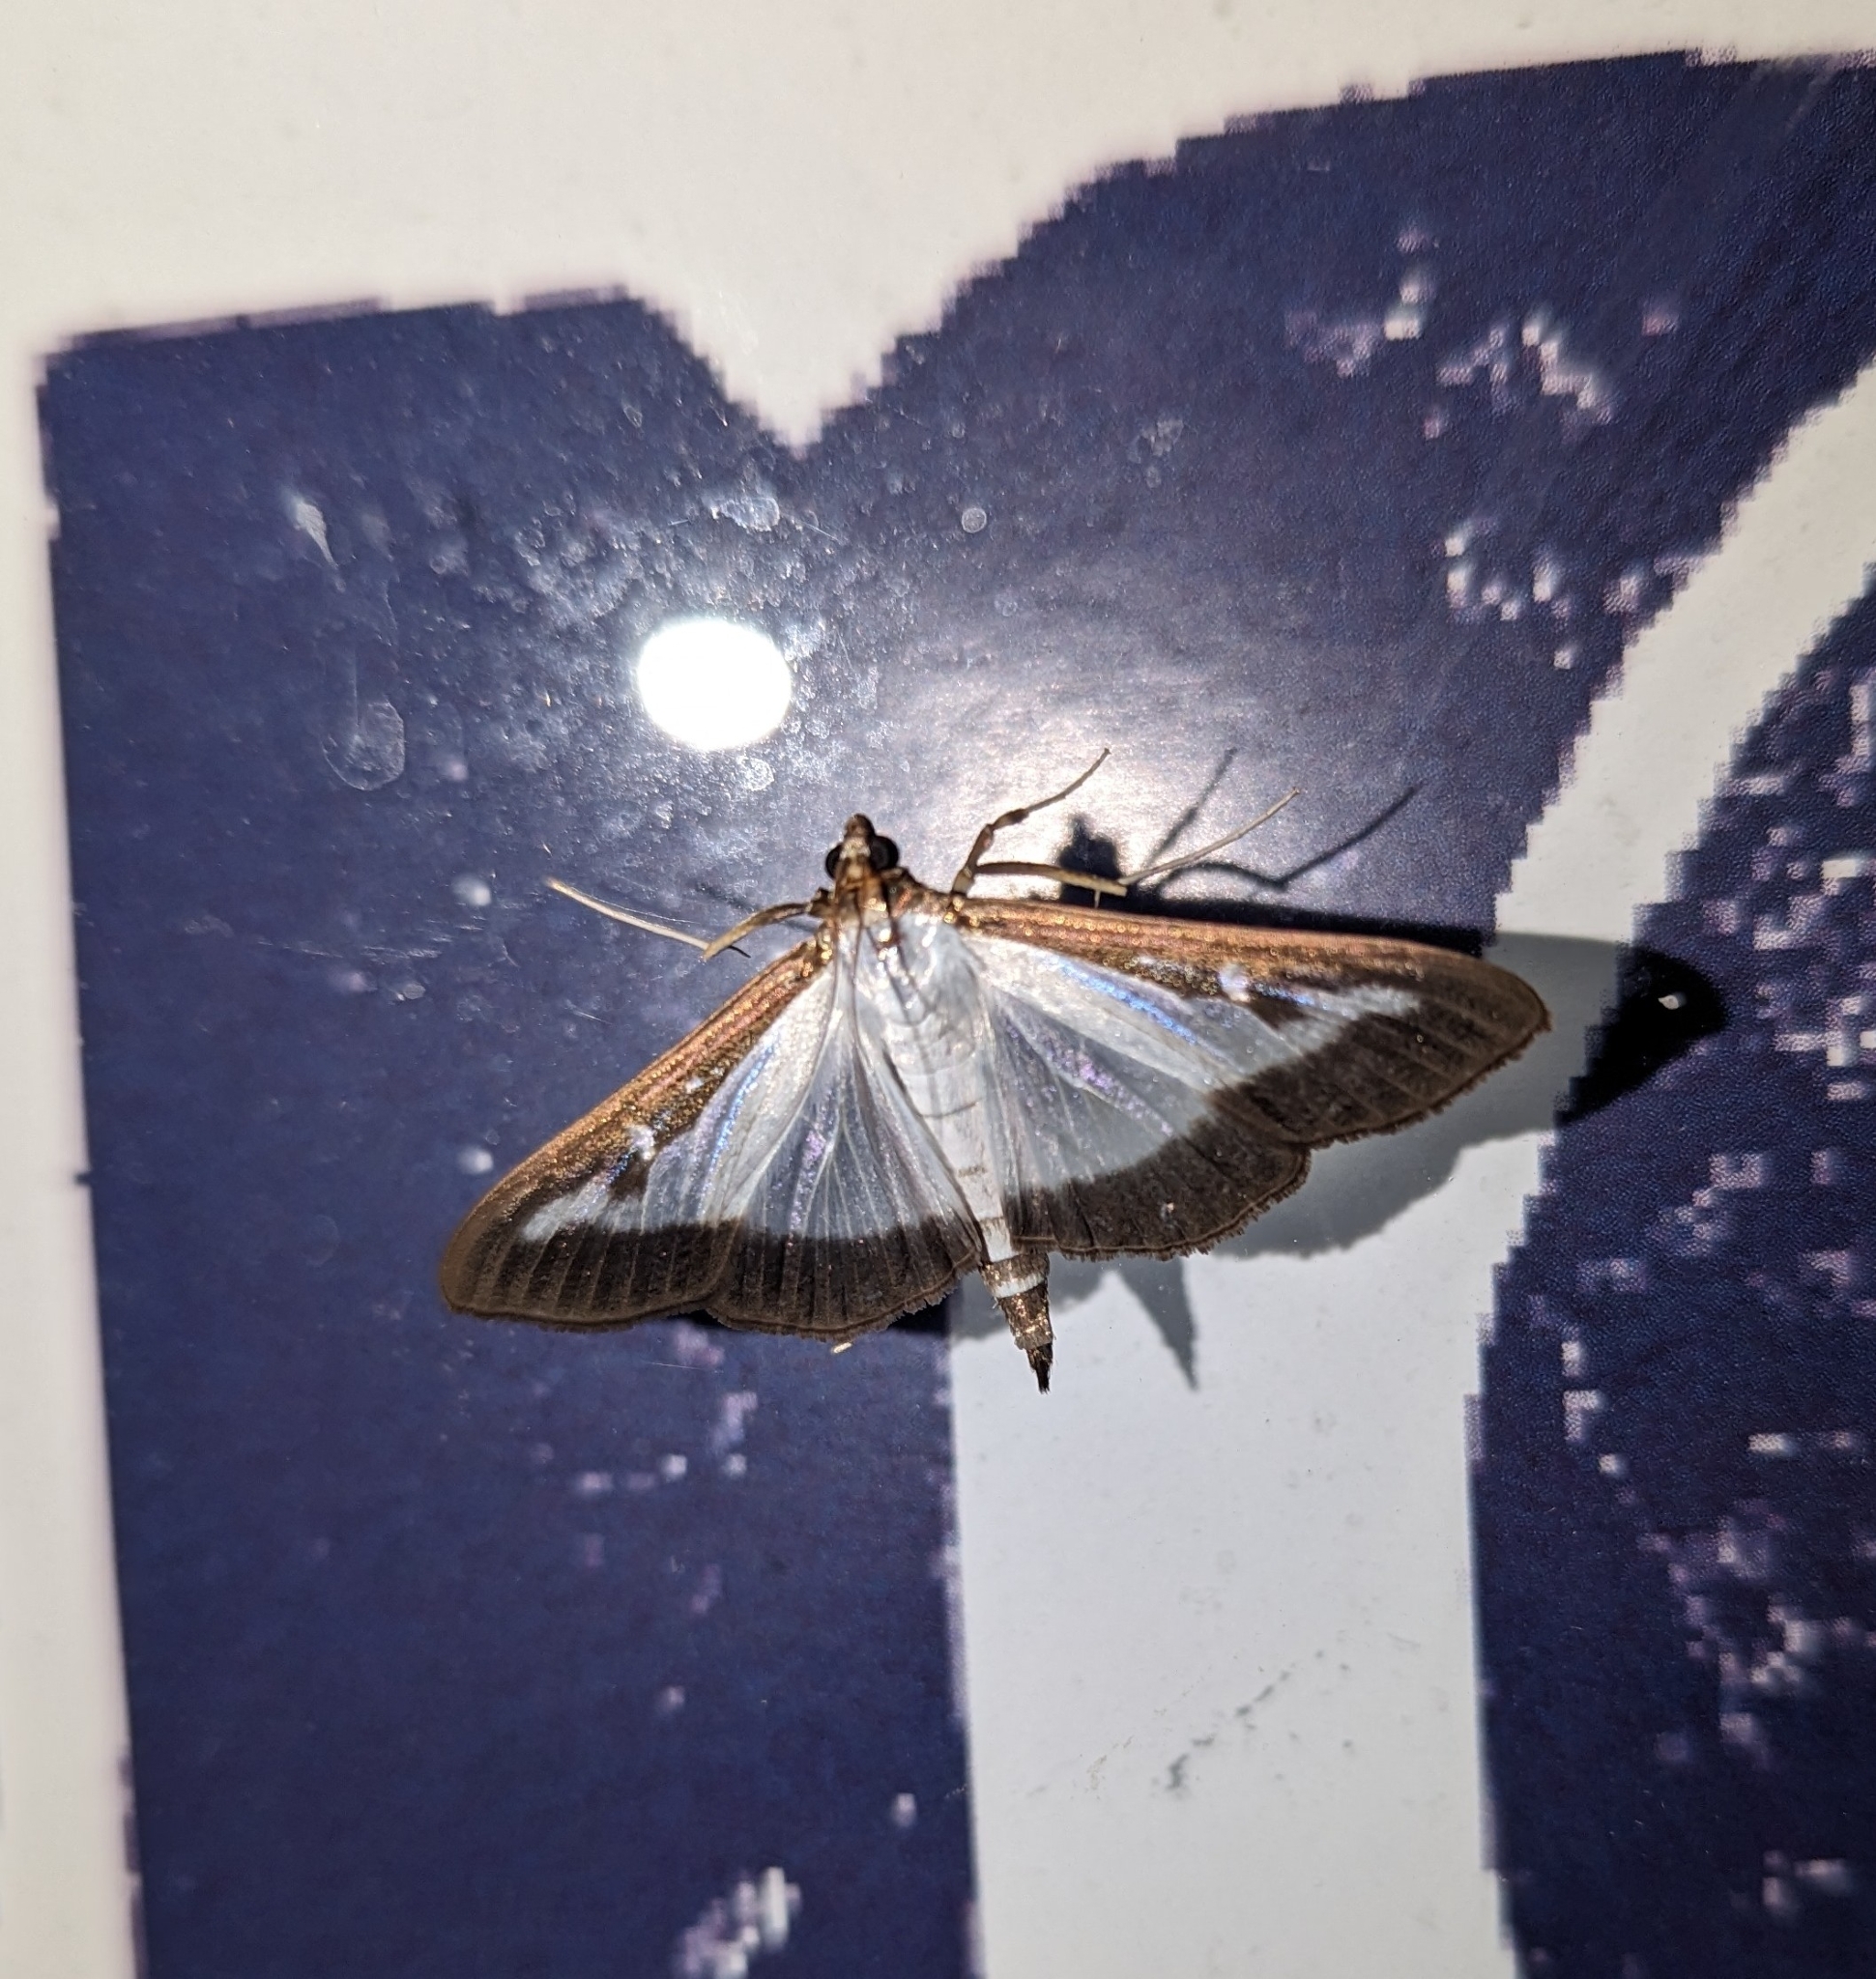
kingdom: Animalia
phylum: Arthropoda
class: Insecta
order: Lepidoptera
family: Crambidae
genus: Cydalima
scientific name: Cydalima perspectalis
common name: Box tree moth
